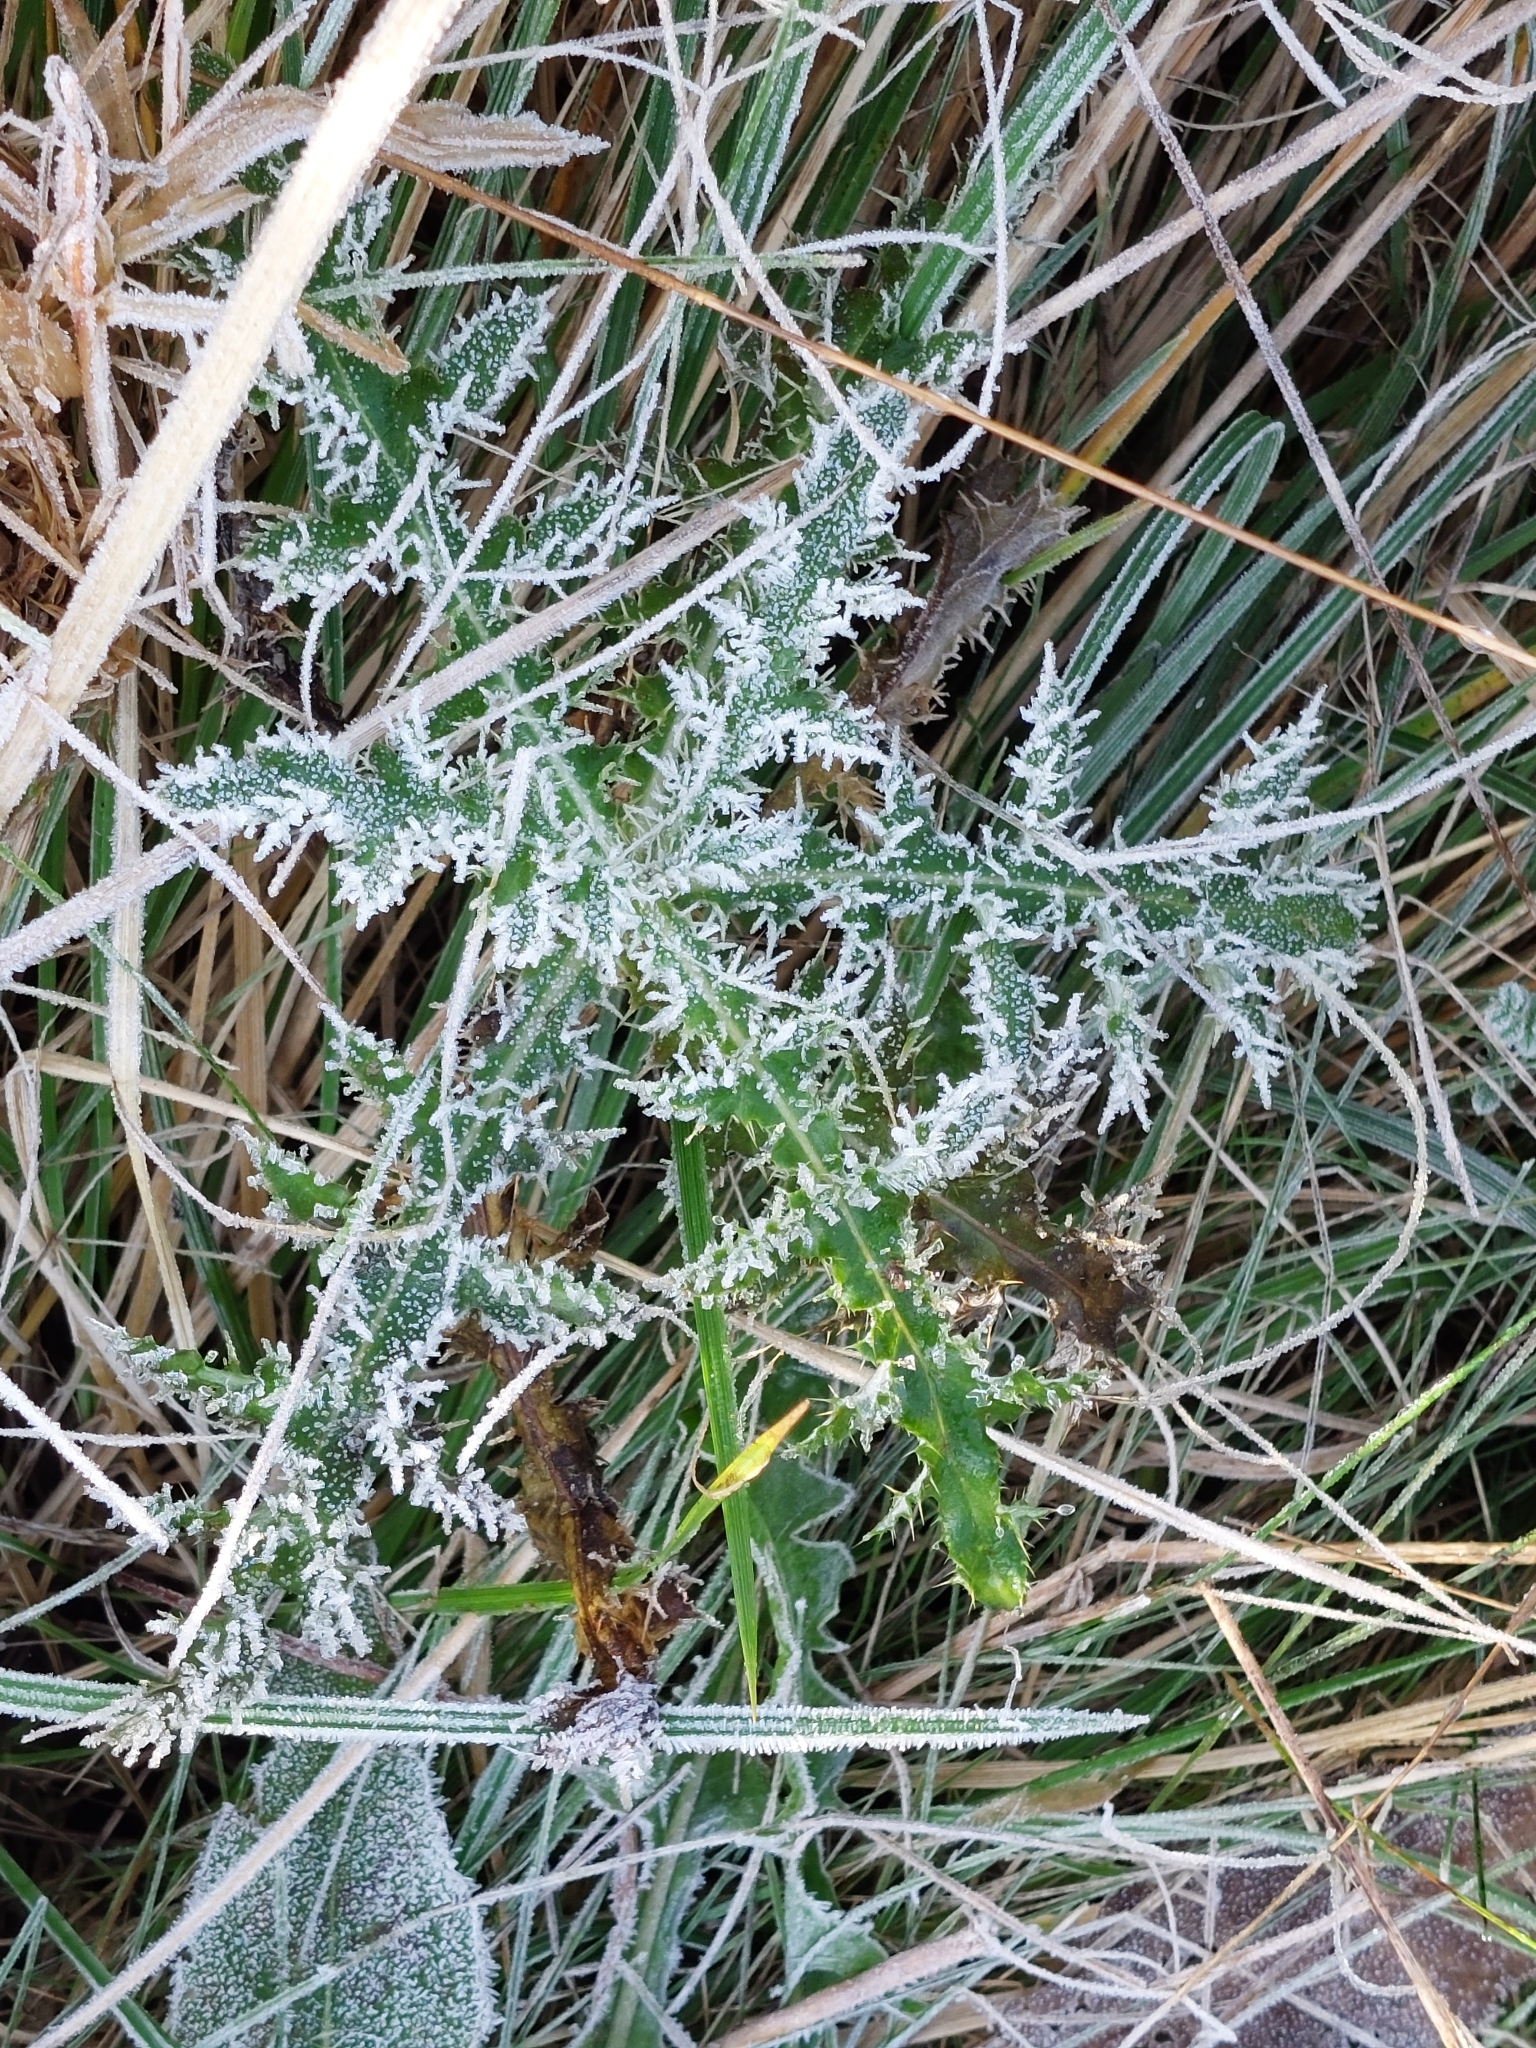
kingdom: Plantae
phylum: Tracheophyta
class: Magnoliopsida
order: Asterales
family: Asteraceae
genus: Cirsium
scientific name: Cirsium arvense
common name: Creeping thistle
